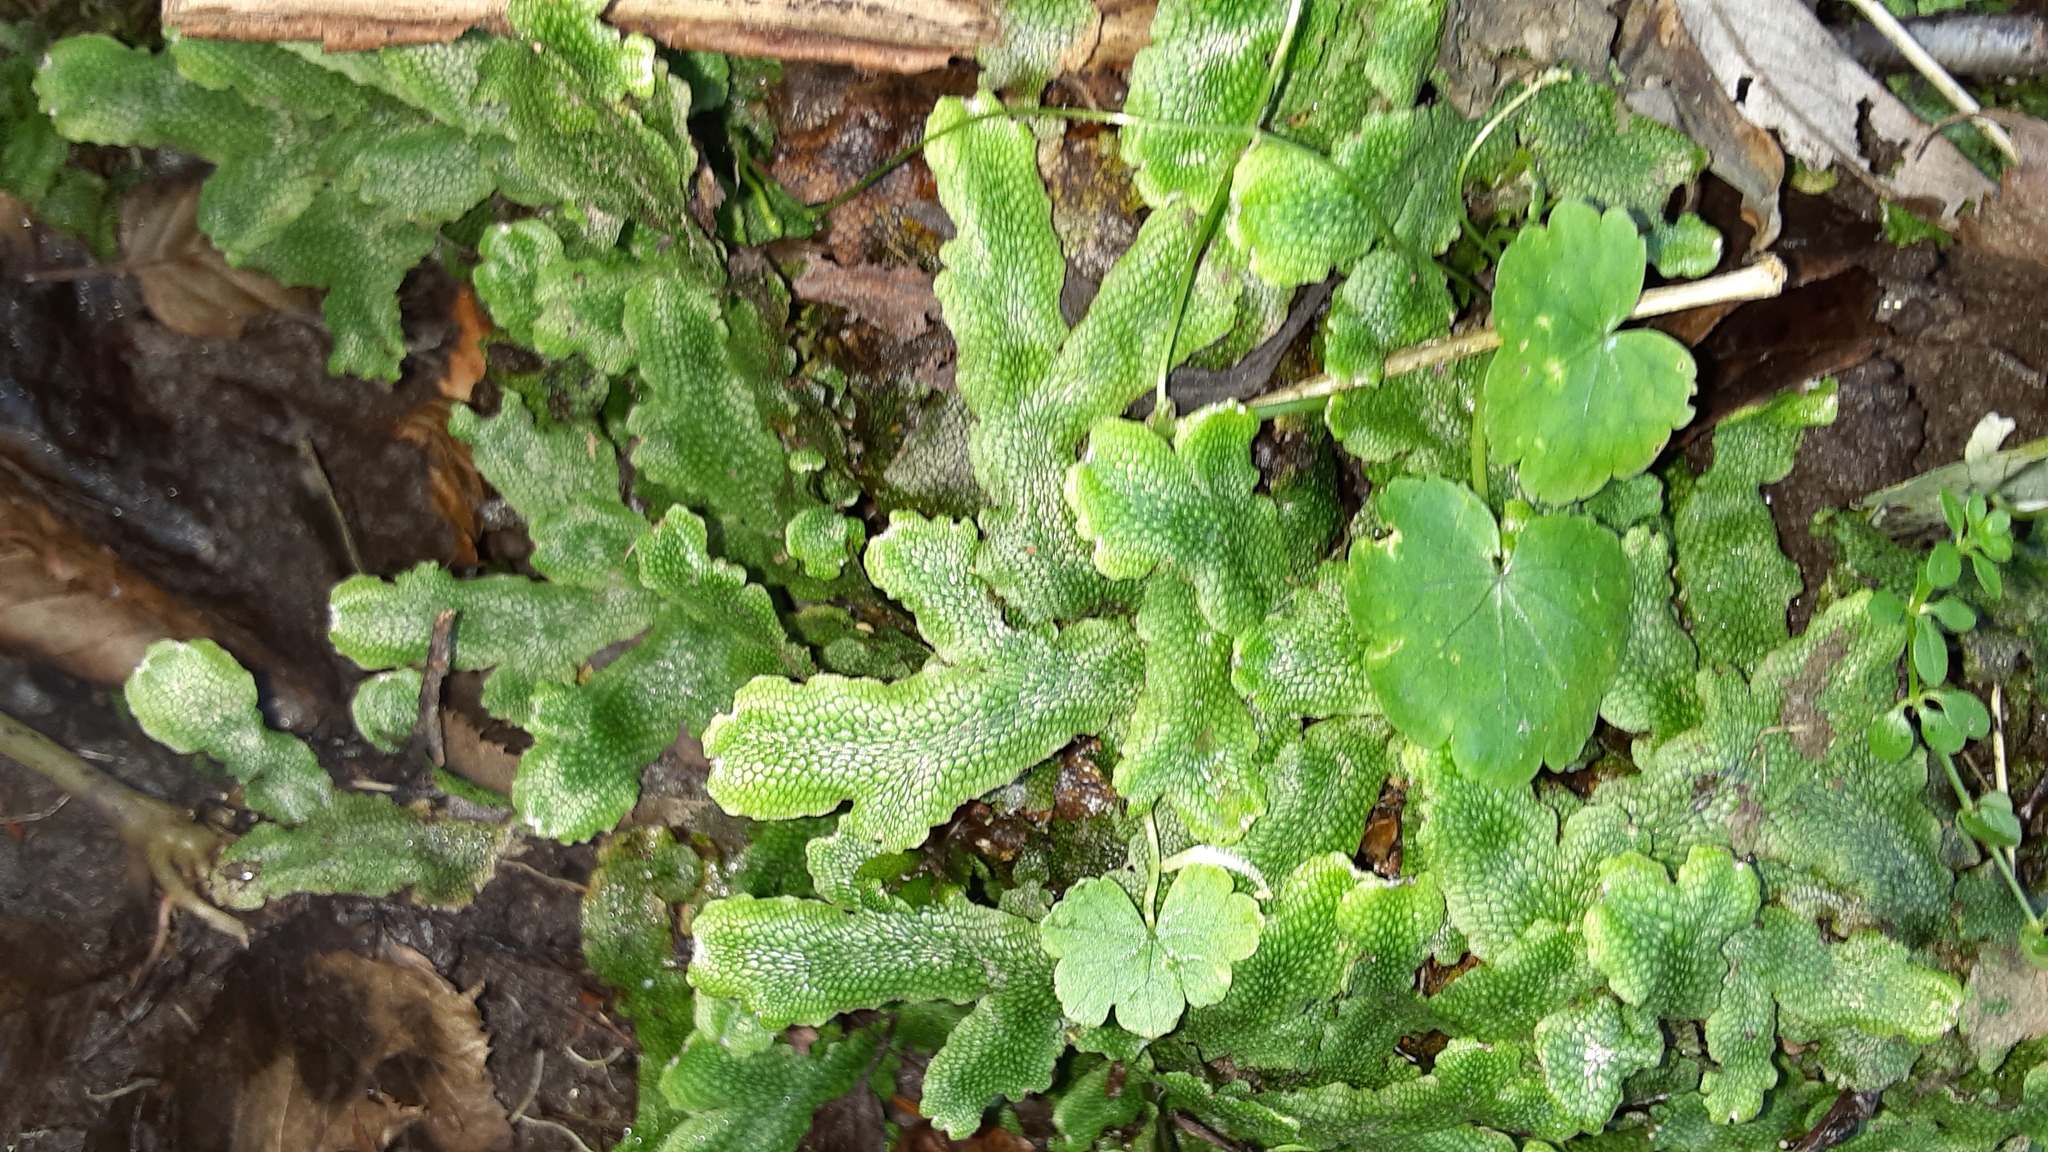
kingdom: Plantae
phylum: Marchantiophyta
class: Marchantiopsida
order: Marchantiales
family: Conocephalaceae
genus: Conocephalum
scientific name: Conocephalum salebrosum
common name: Cat-tongue liverwort
